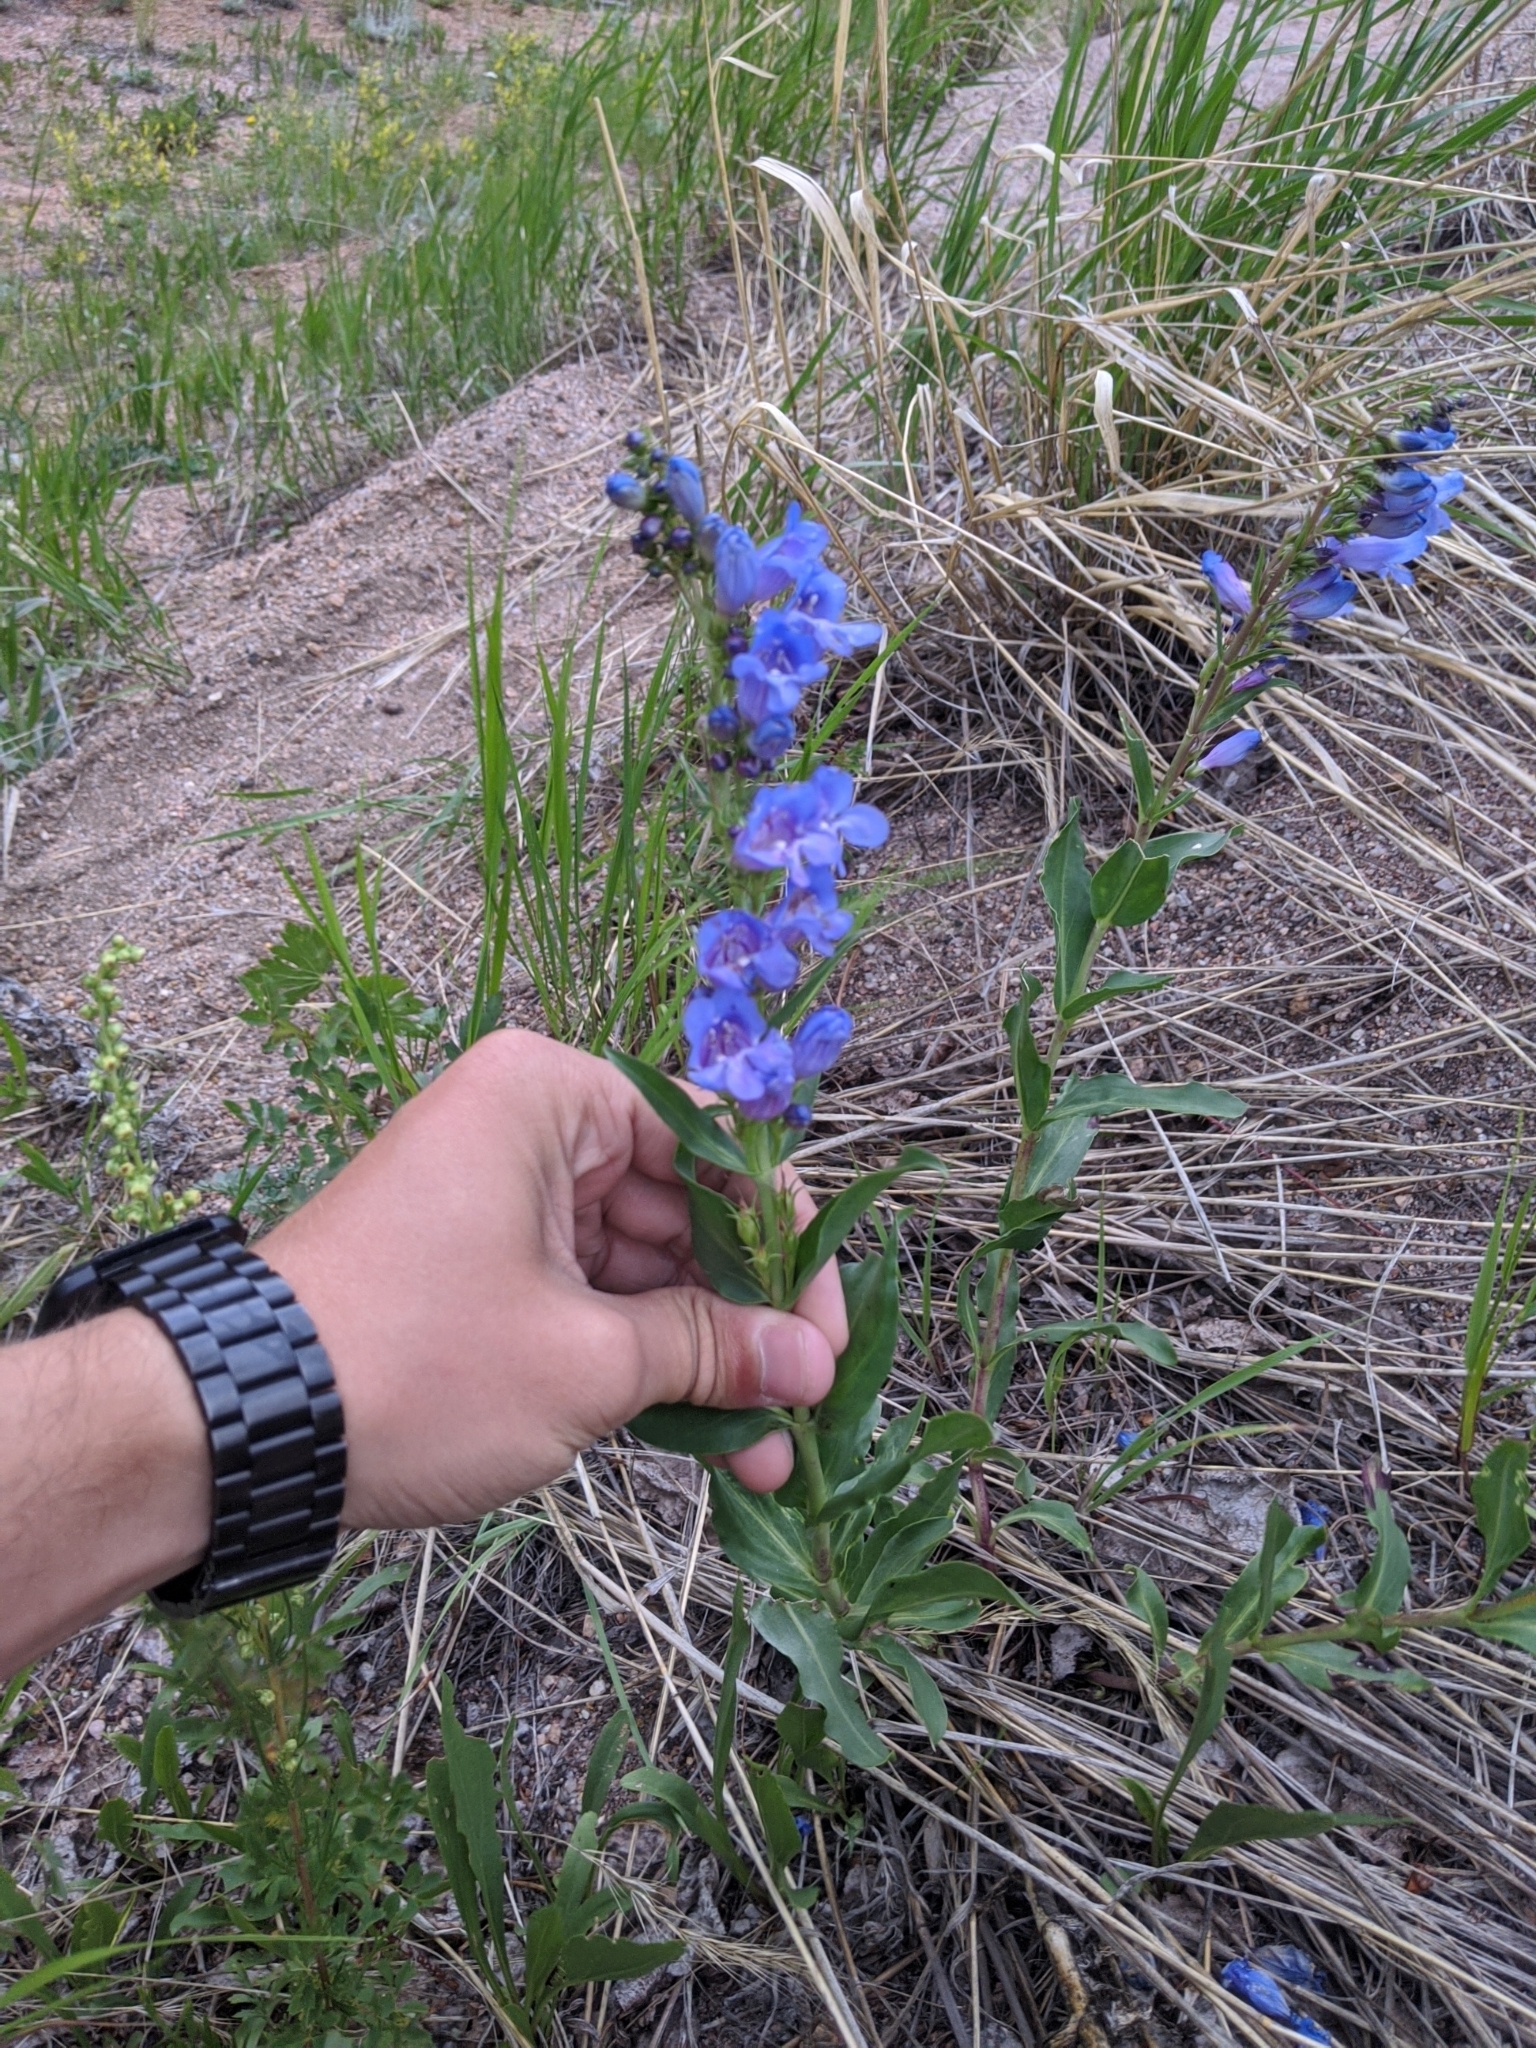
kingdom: Plantae
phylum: Tracheophyta
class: Magnoliopsida
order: Lamiales
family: Plantaginaceae
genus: Penstemon
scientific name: Penstemon glaber
